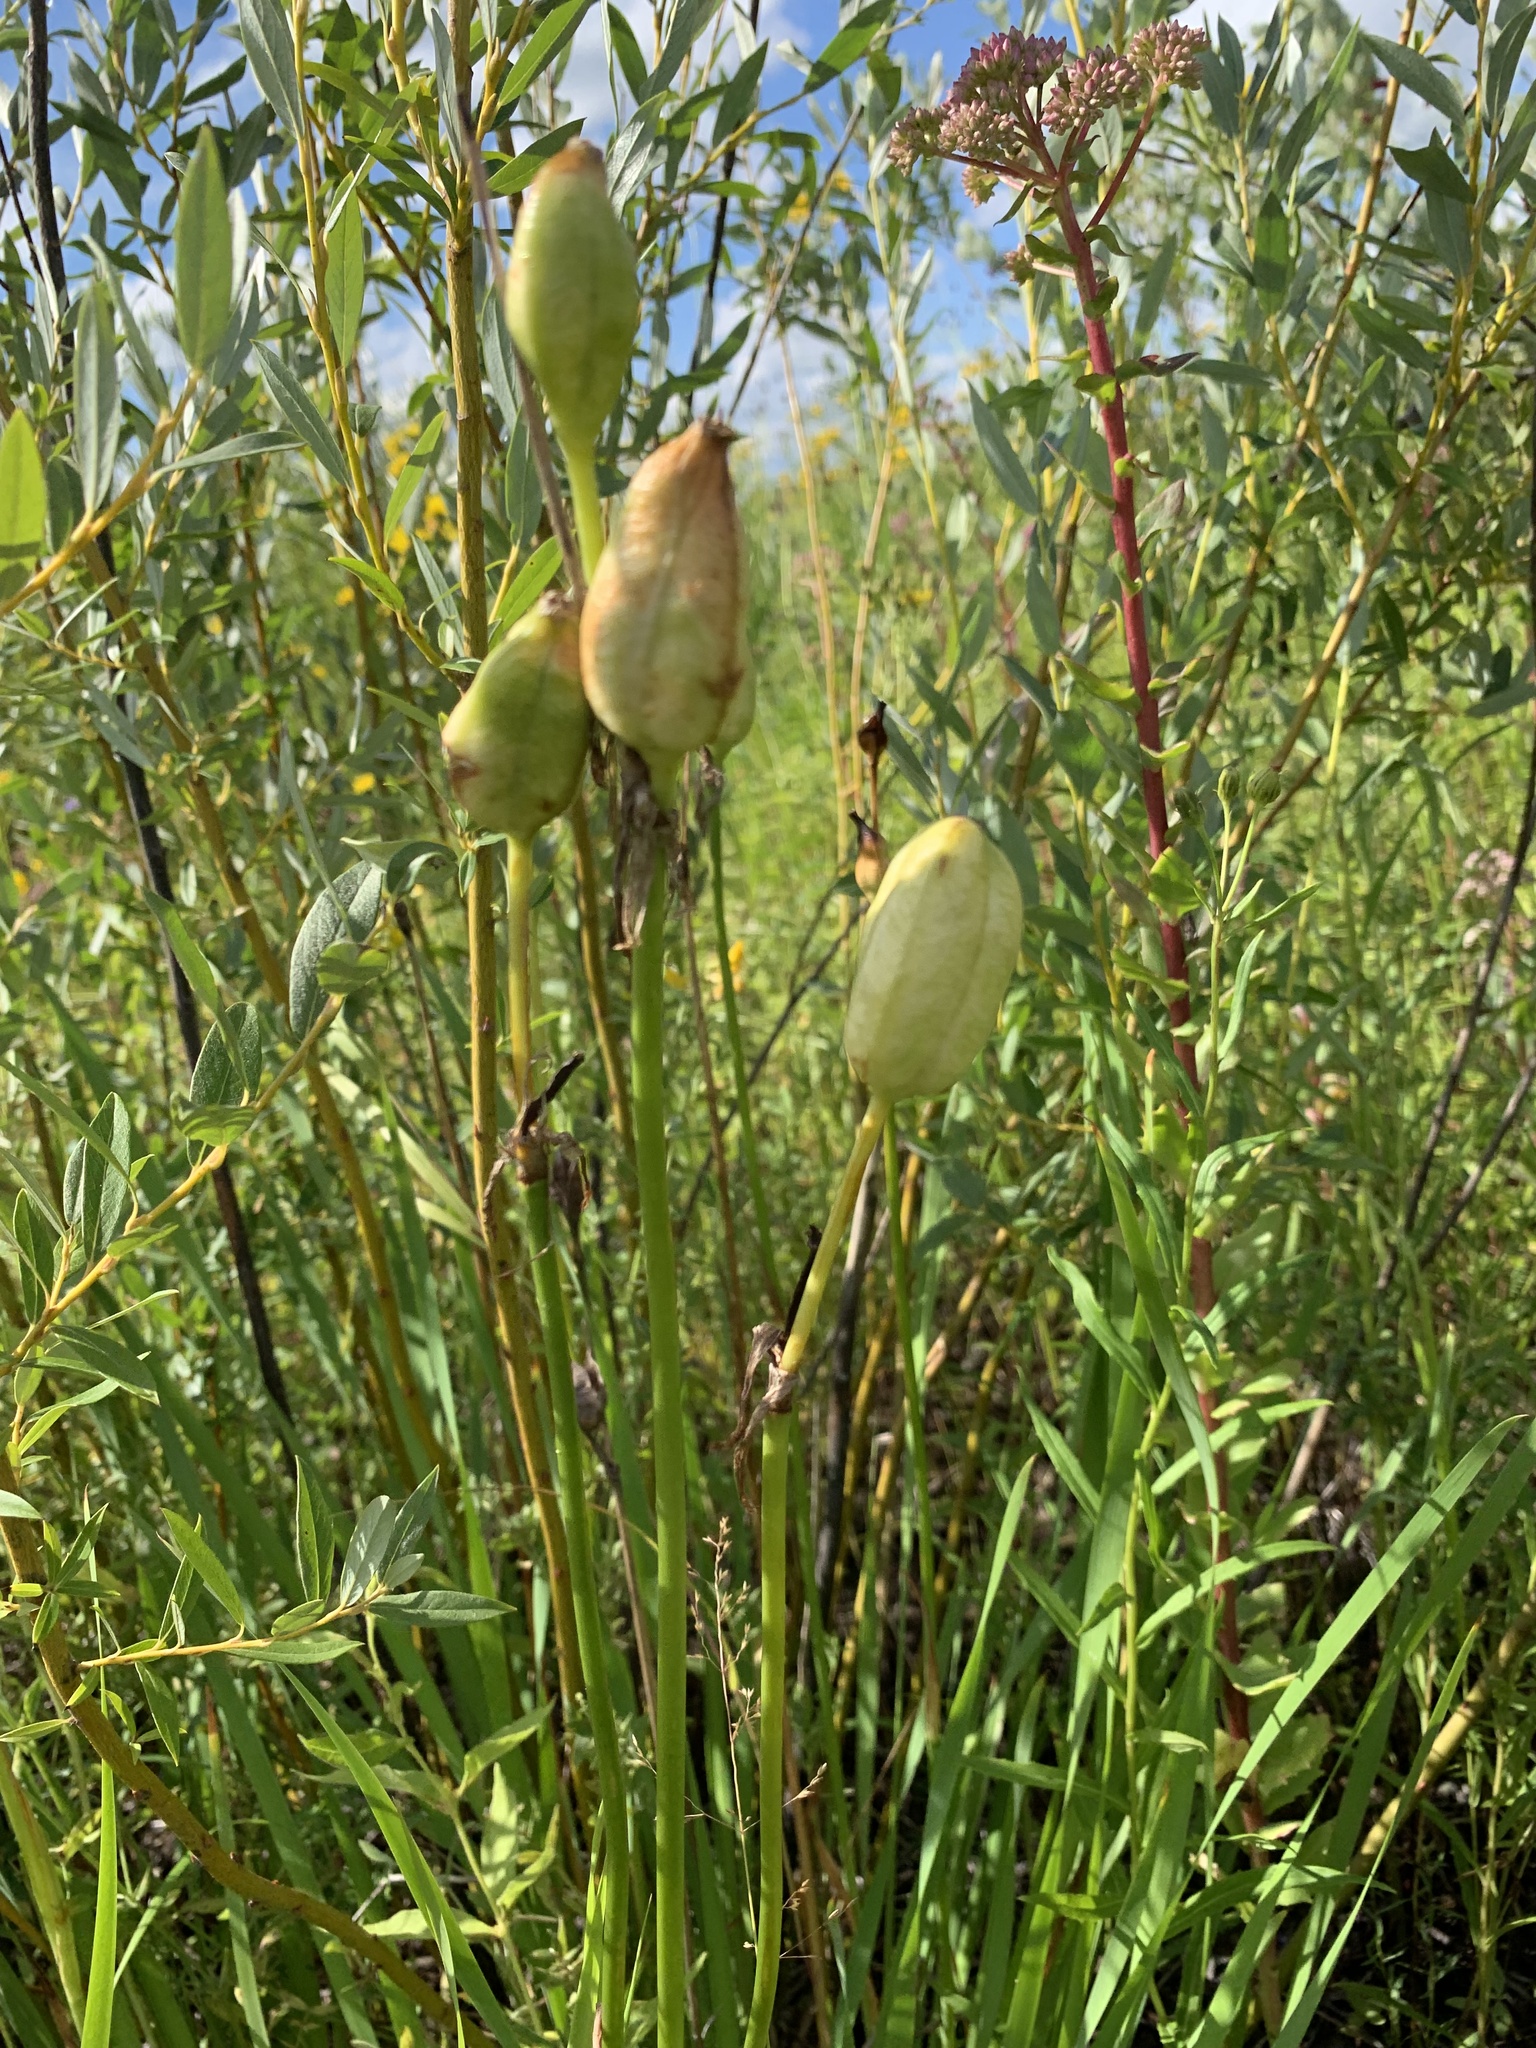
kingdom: Plantae
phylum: Tracheophyta
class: Liliopsida
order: Asparagales
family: Iridaceae
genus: Iris
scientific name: Iris sibirica
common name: Siberian iris
